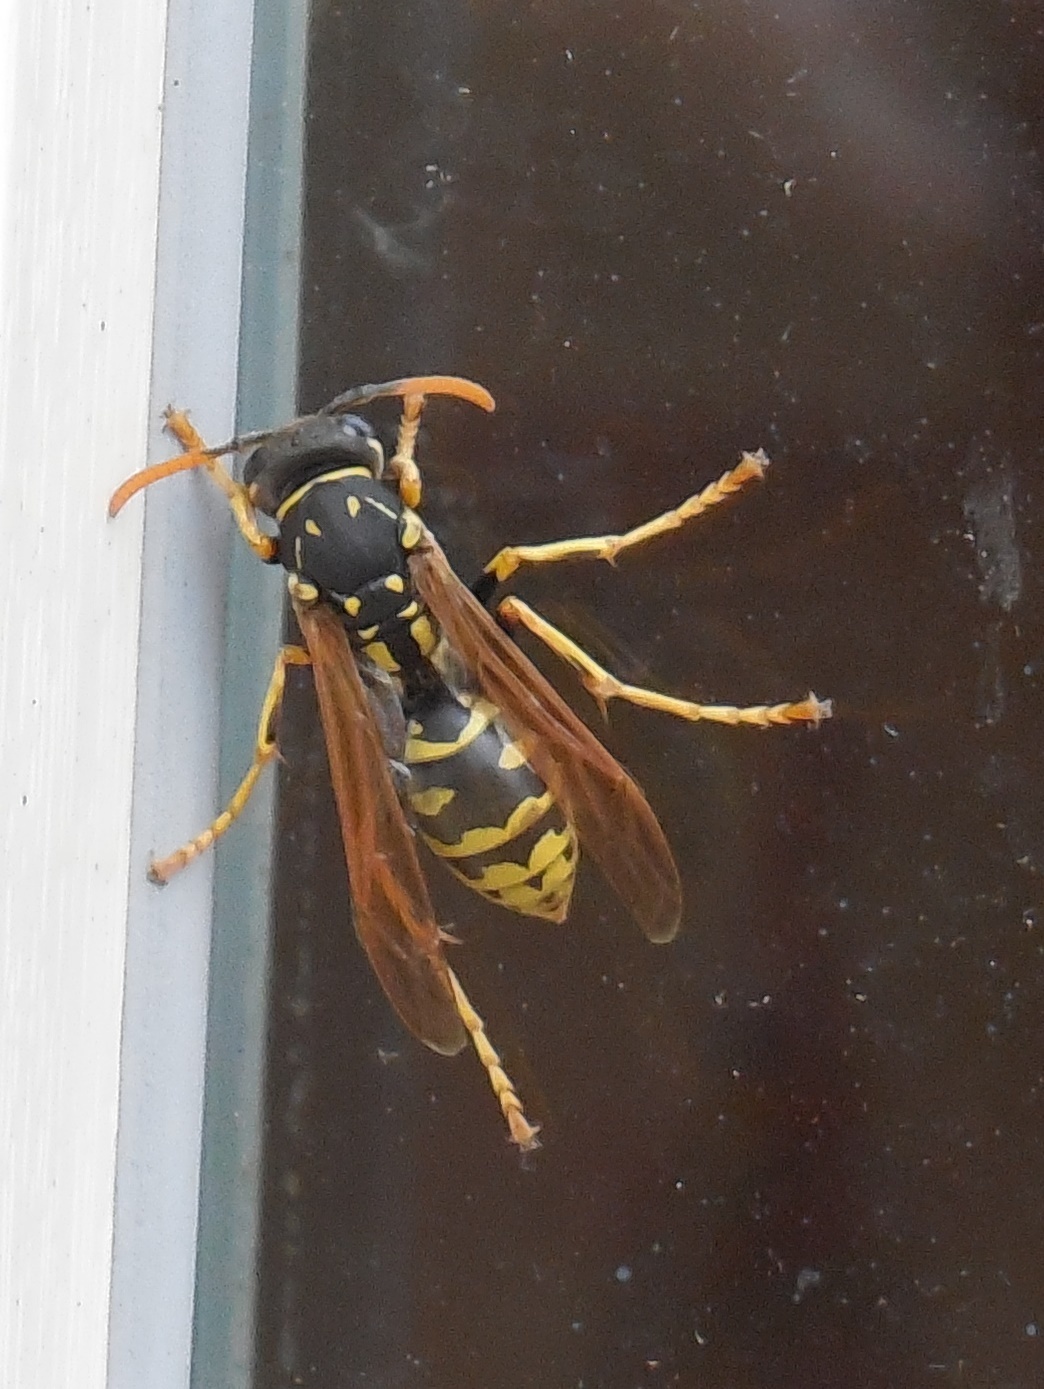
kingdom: Animalia
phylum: Arthropoda
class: Insecta
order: Hymenoptera
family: Eumenidae
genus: Polistes
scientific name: Polistes dominula
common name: Paper wasp
